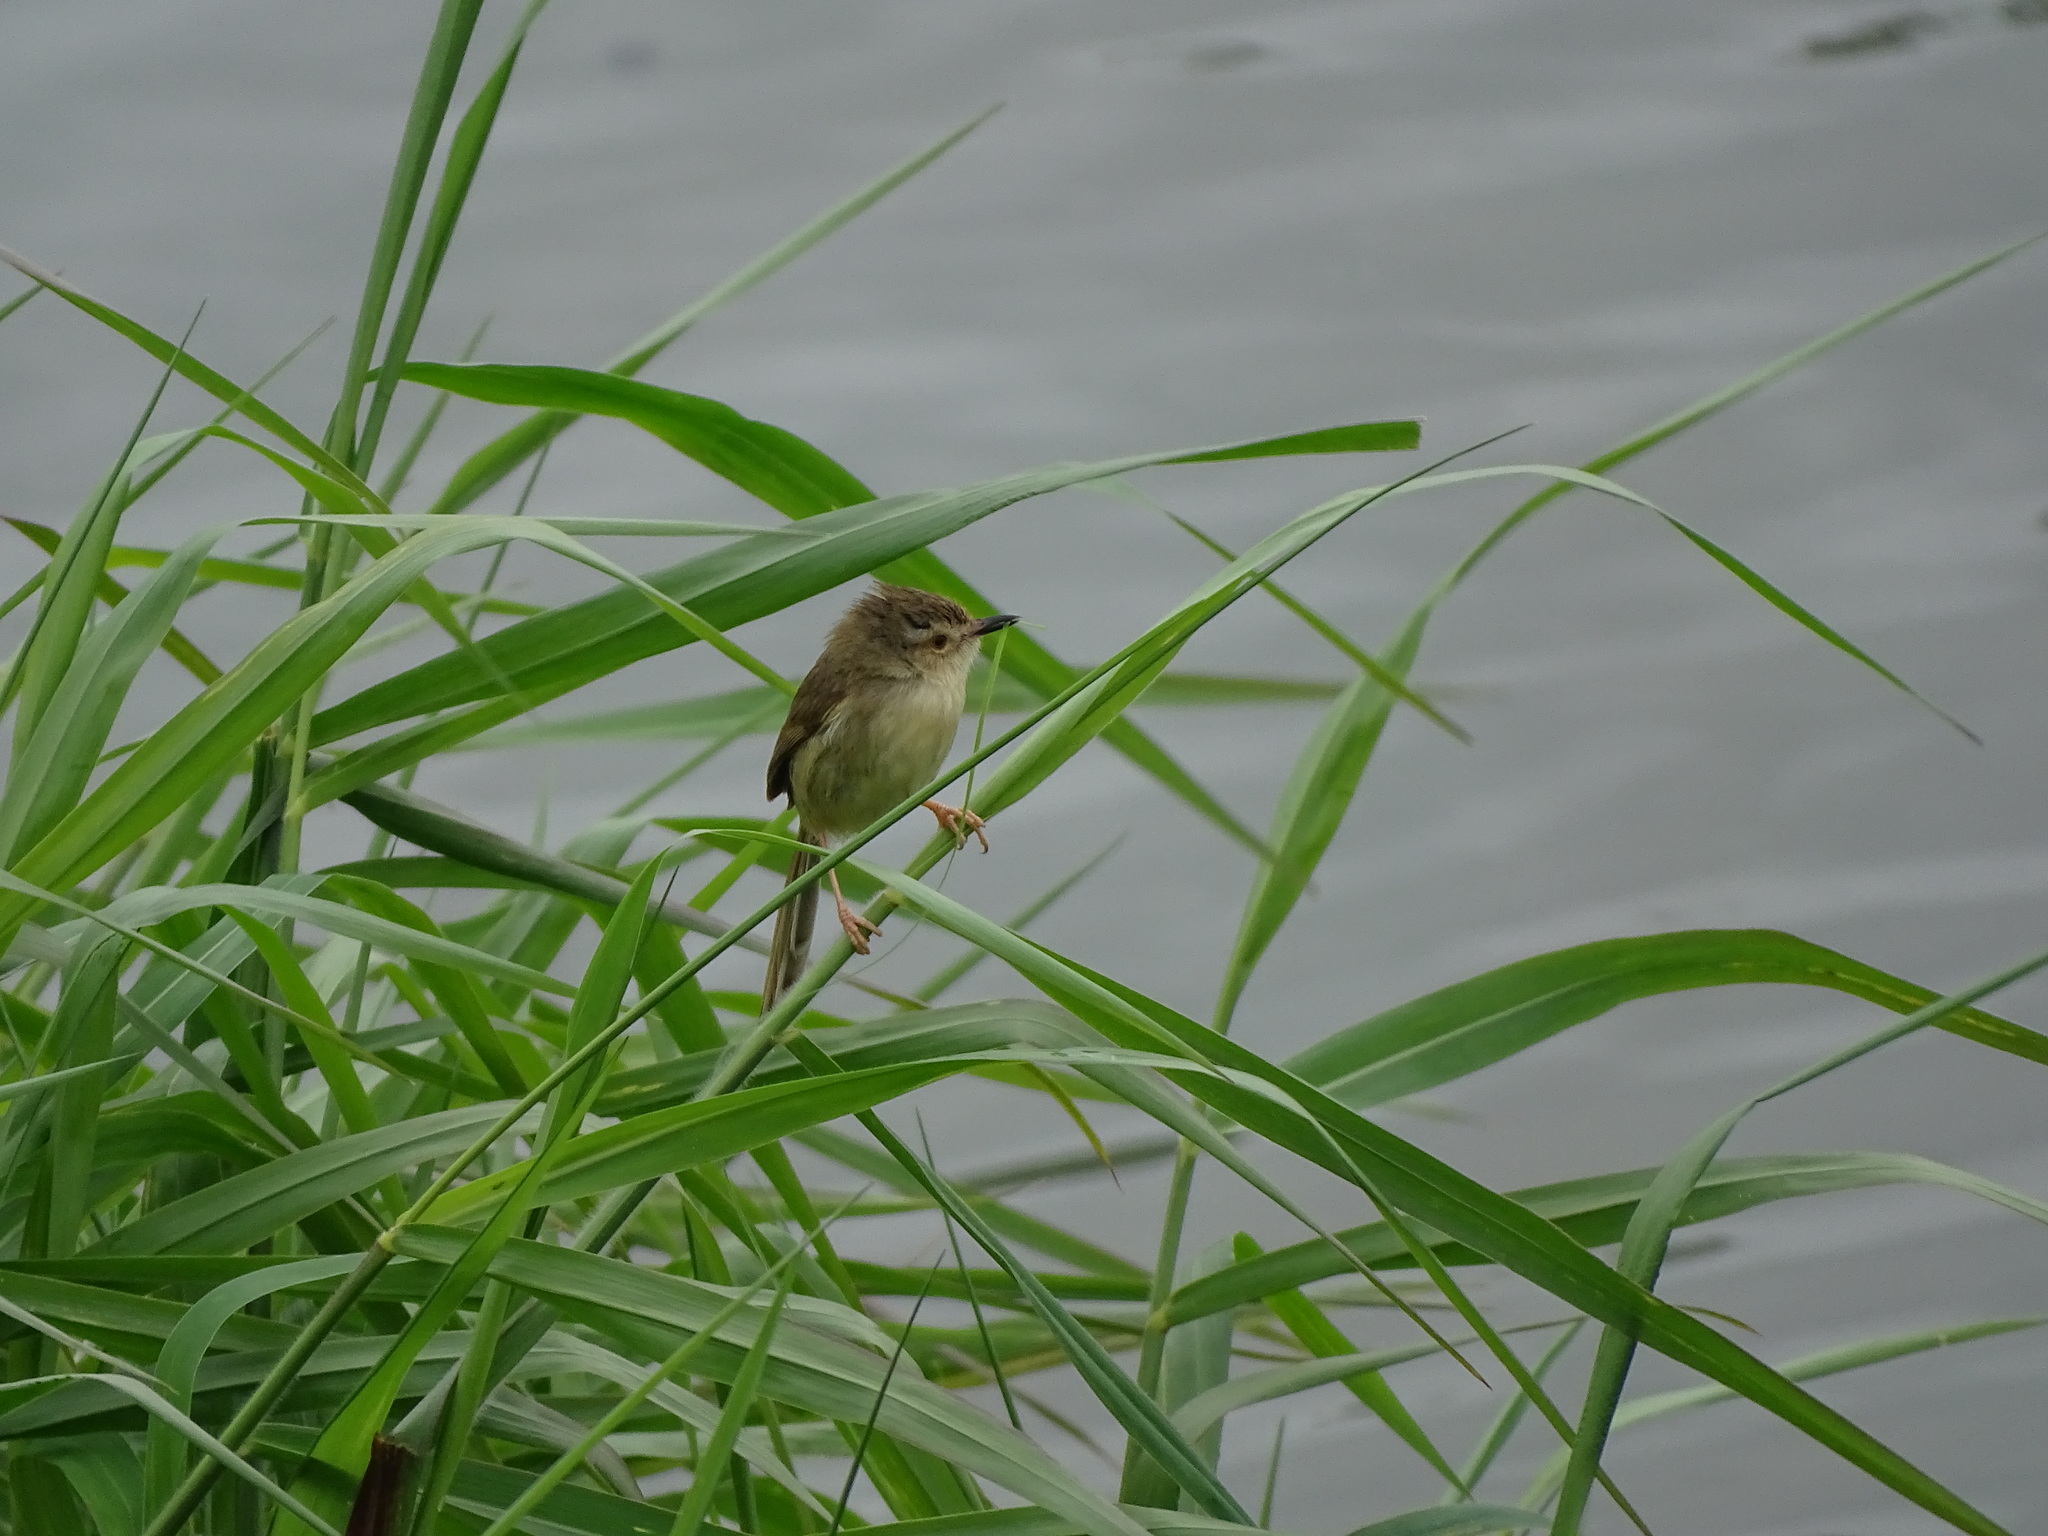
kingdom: Animalia
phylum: Chordata
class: Aves
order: Passeriformes
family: Cisticolidae
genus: Prinia
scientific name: Prinia inornata
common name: Plain prinia
